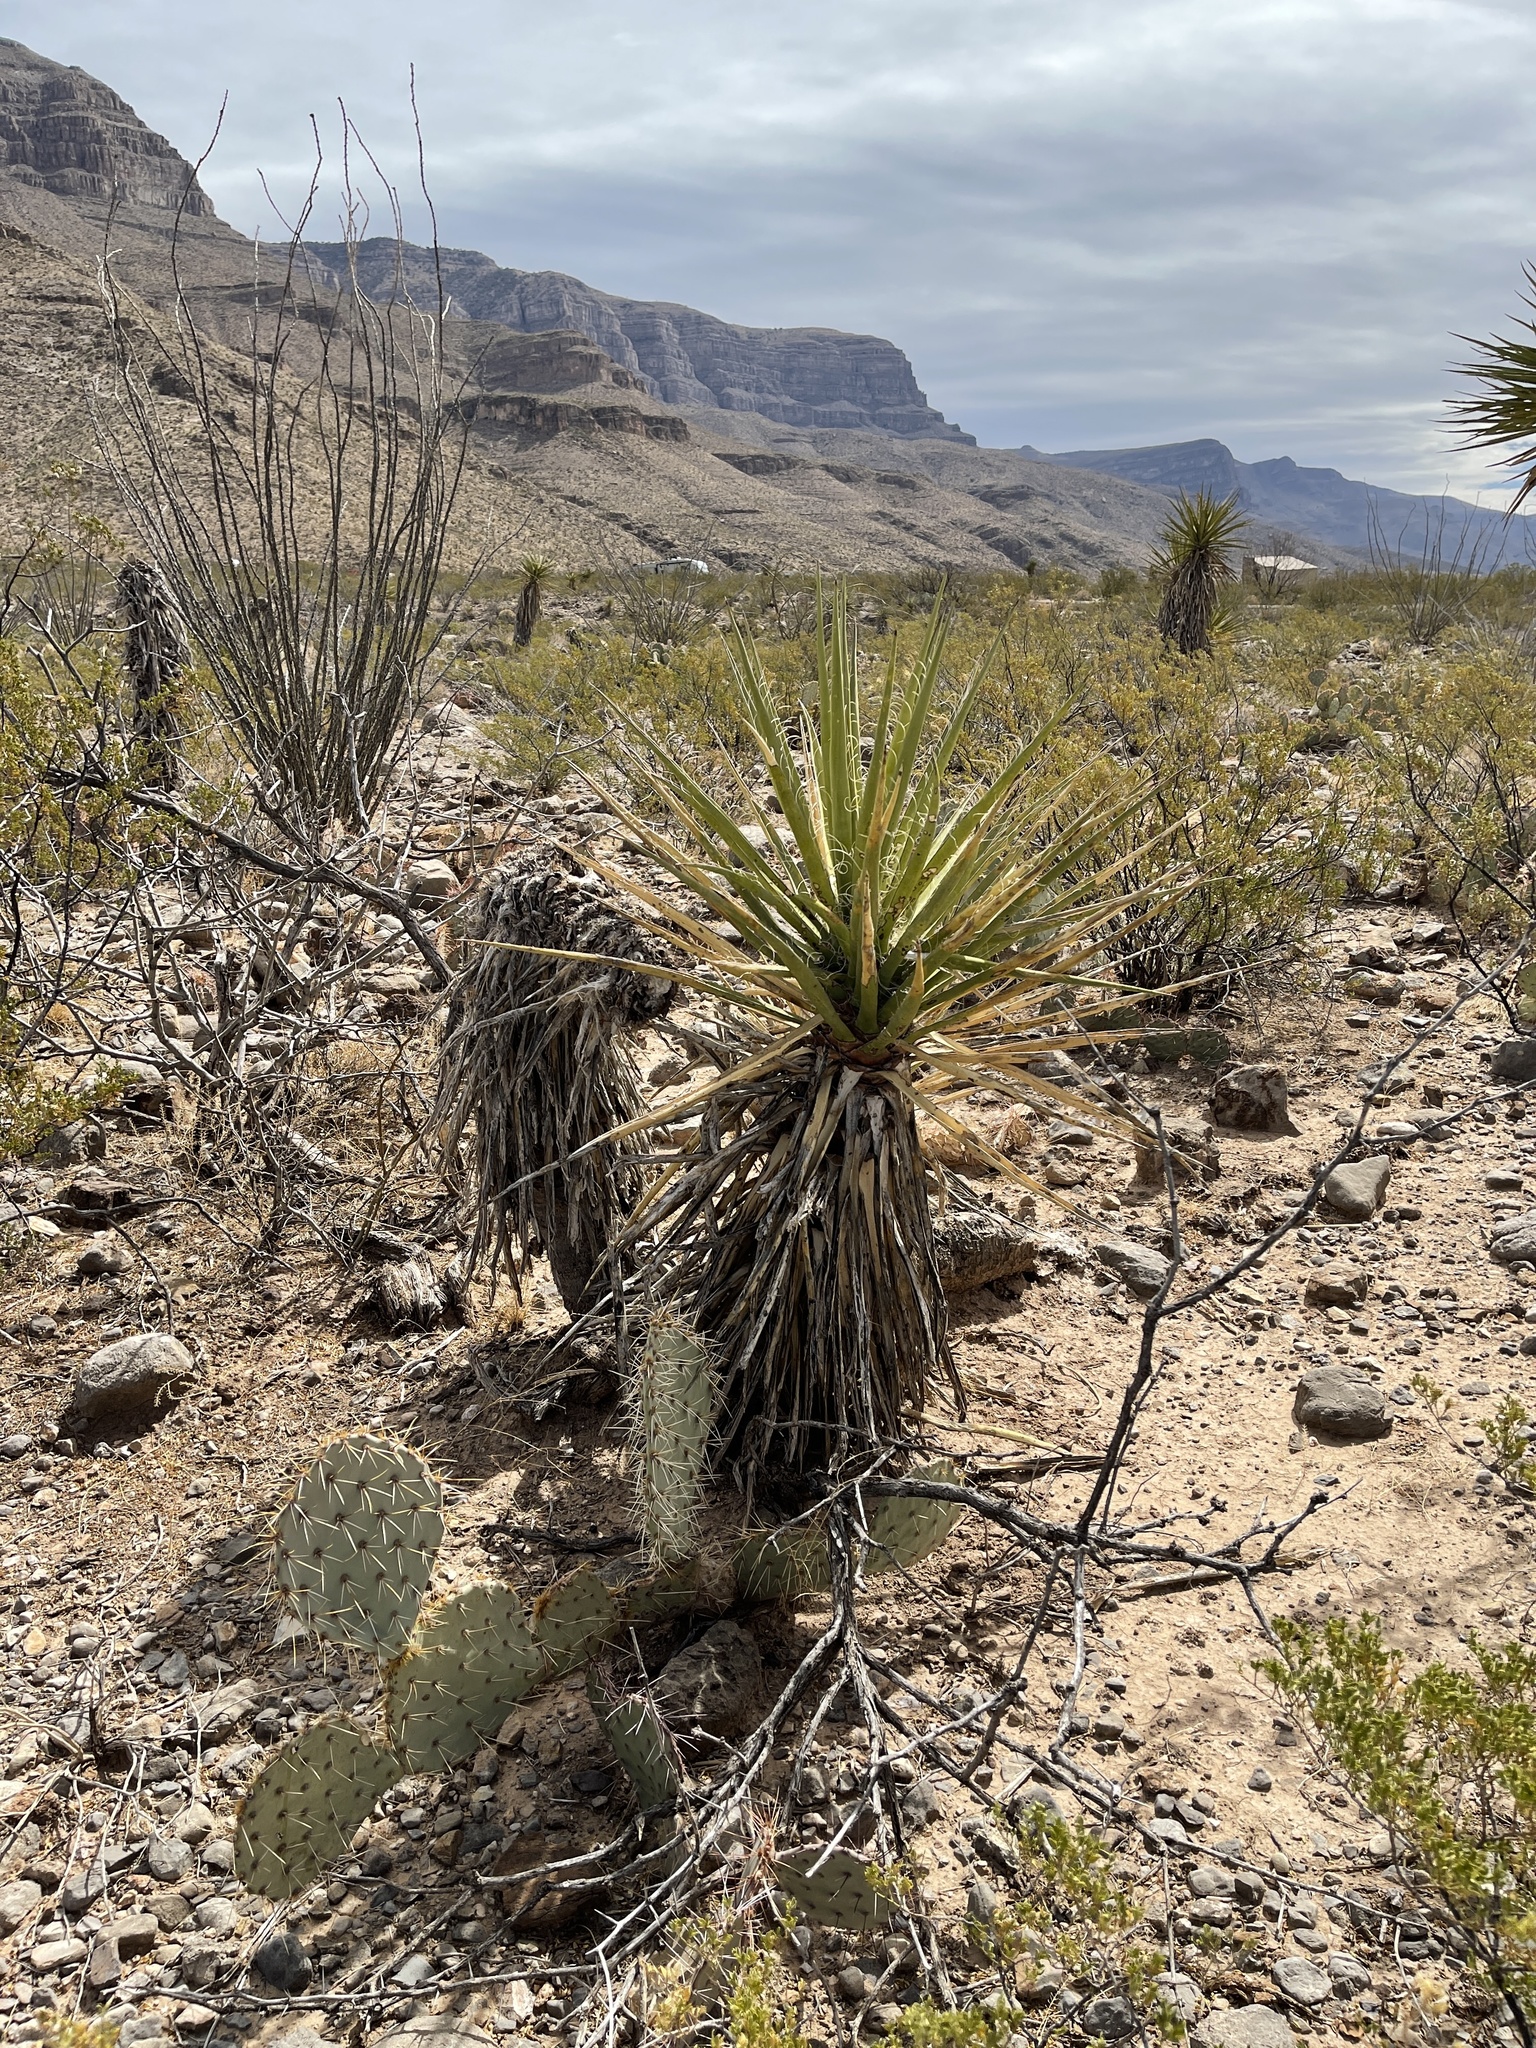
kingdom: Plantae
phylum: Tracheophyta
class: Liliopsida
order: Asparagales
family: Asparagaceae
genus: Yucca
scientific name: Yucca treculiana
